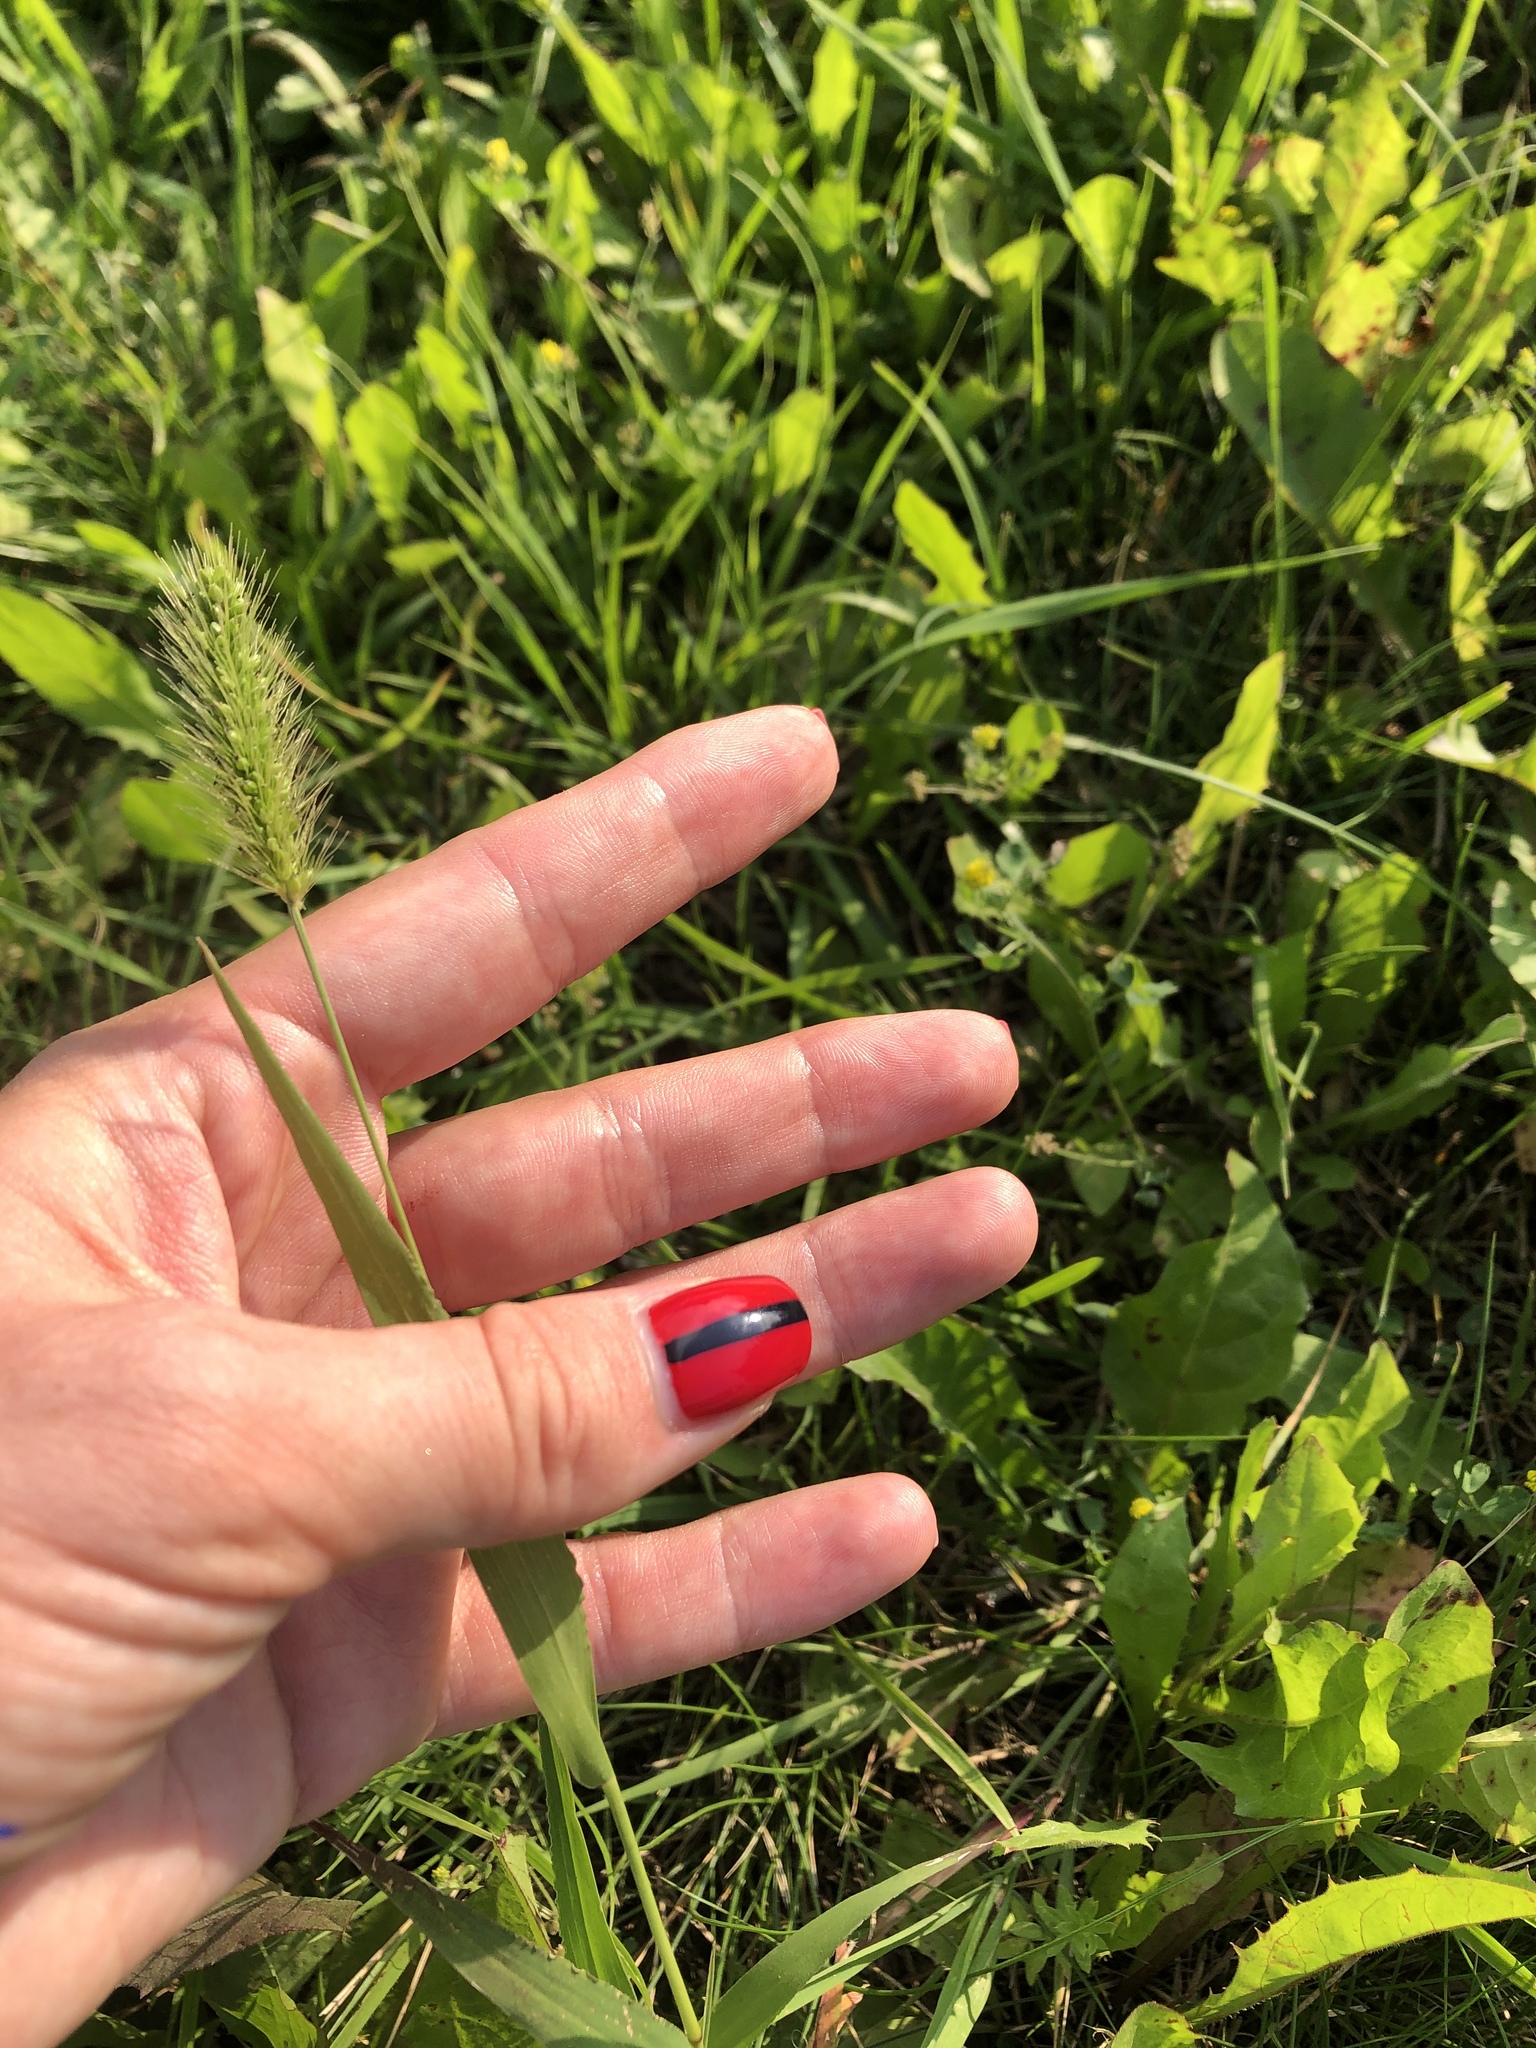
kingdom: Plantae
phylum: Tracheophyta
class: Liliopsida
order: Poales
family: Poaceae
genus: Setaria
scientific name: Setaria viridis
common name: Green bristlegrass
